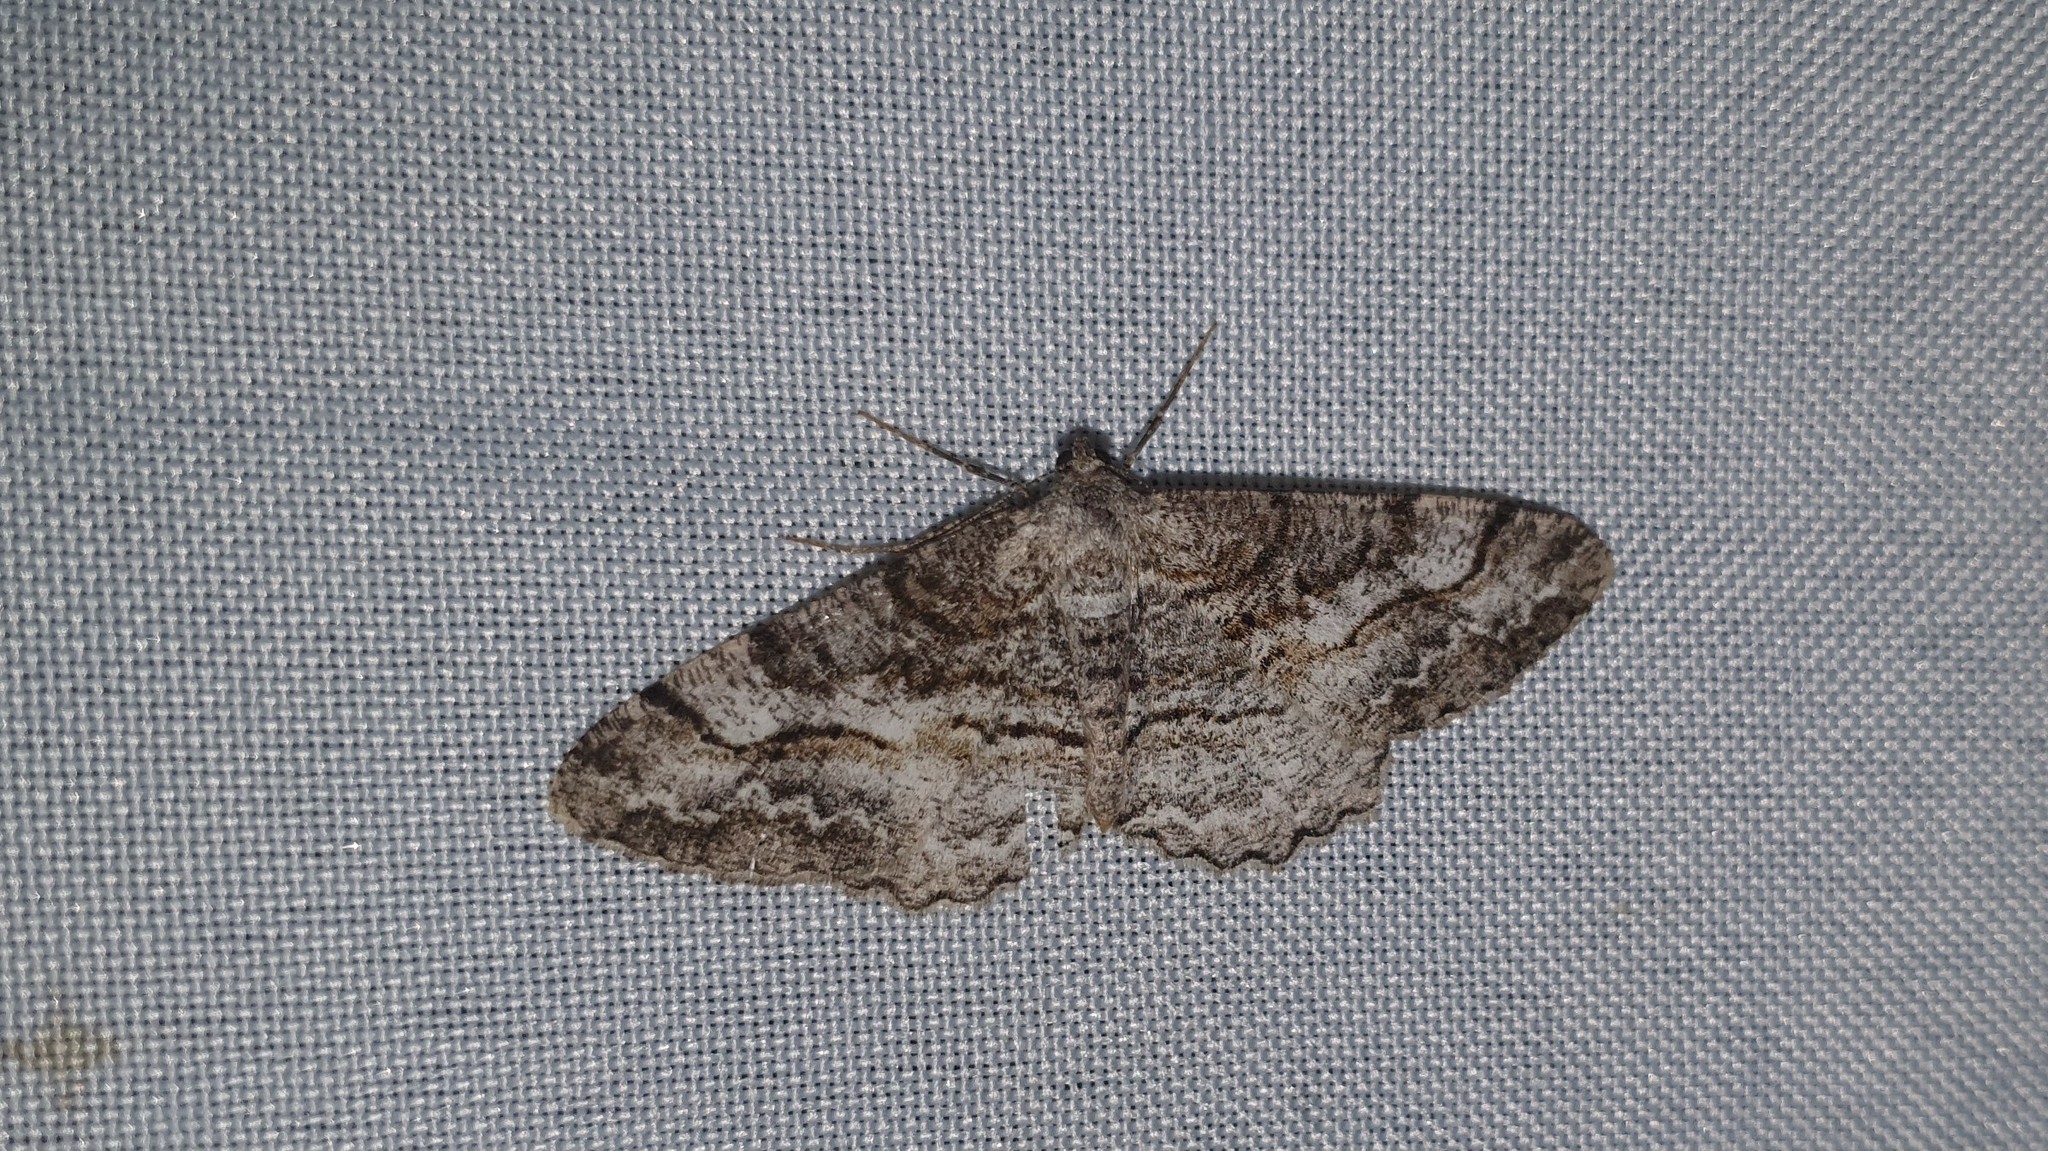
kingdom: Animalia
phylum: Arthropoda
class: Insecta
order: Lepidoptera
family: Geometridae
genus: Alcis
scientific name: Alcis repandata
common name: Mottled beauty
